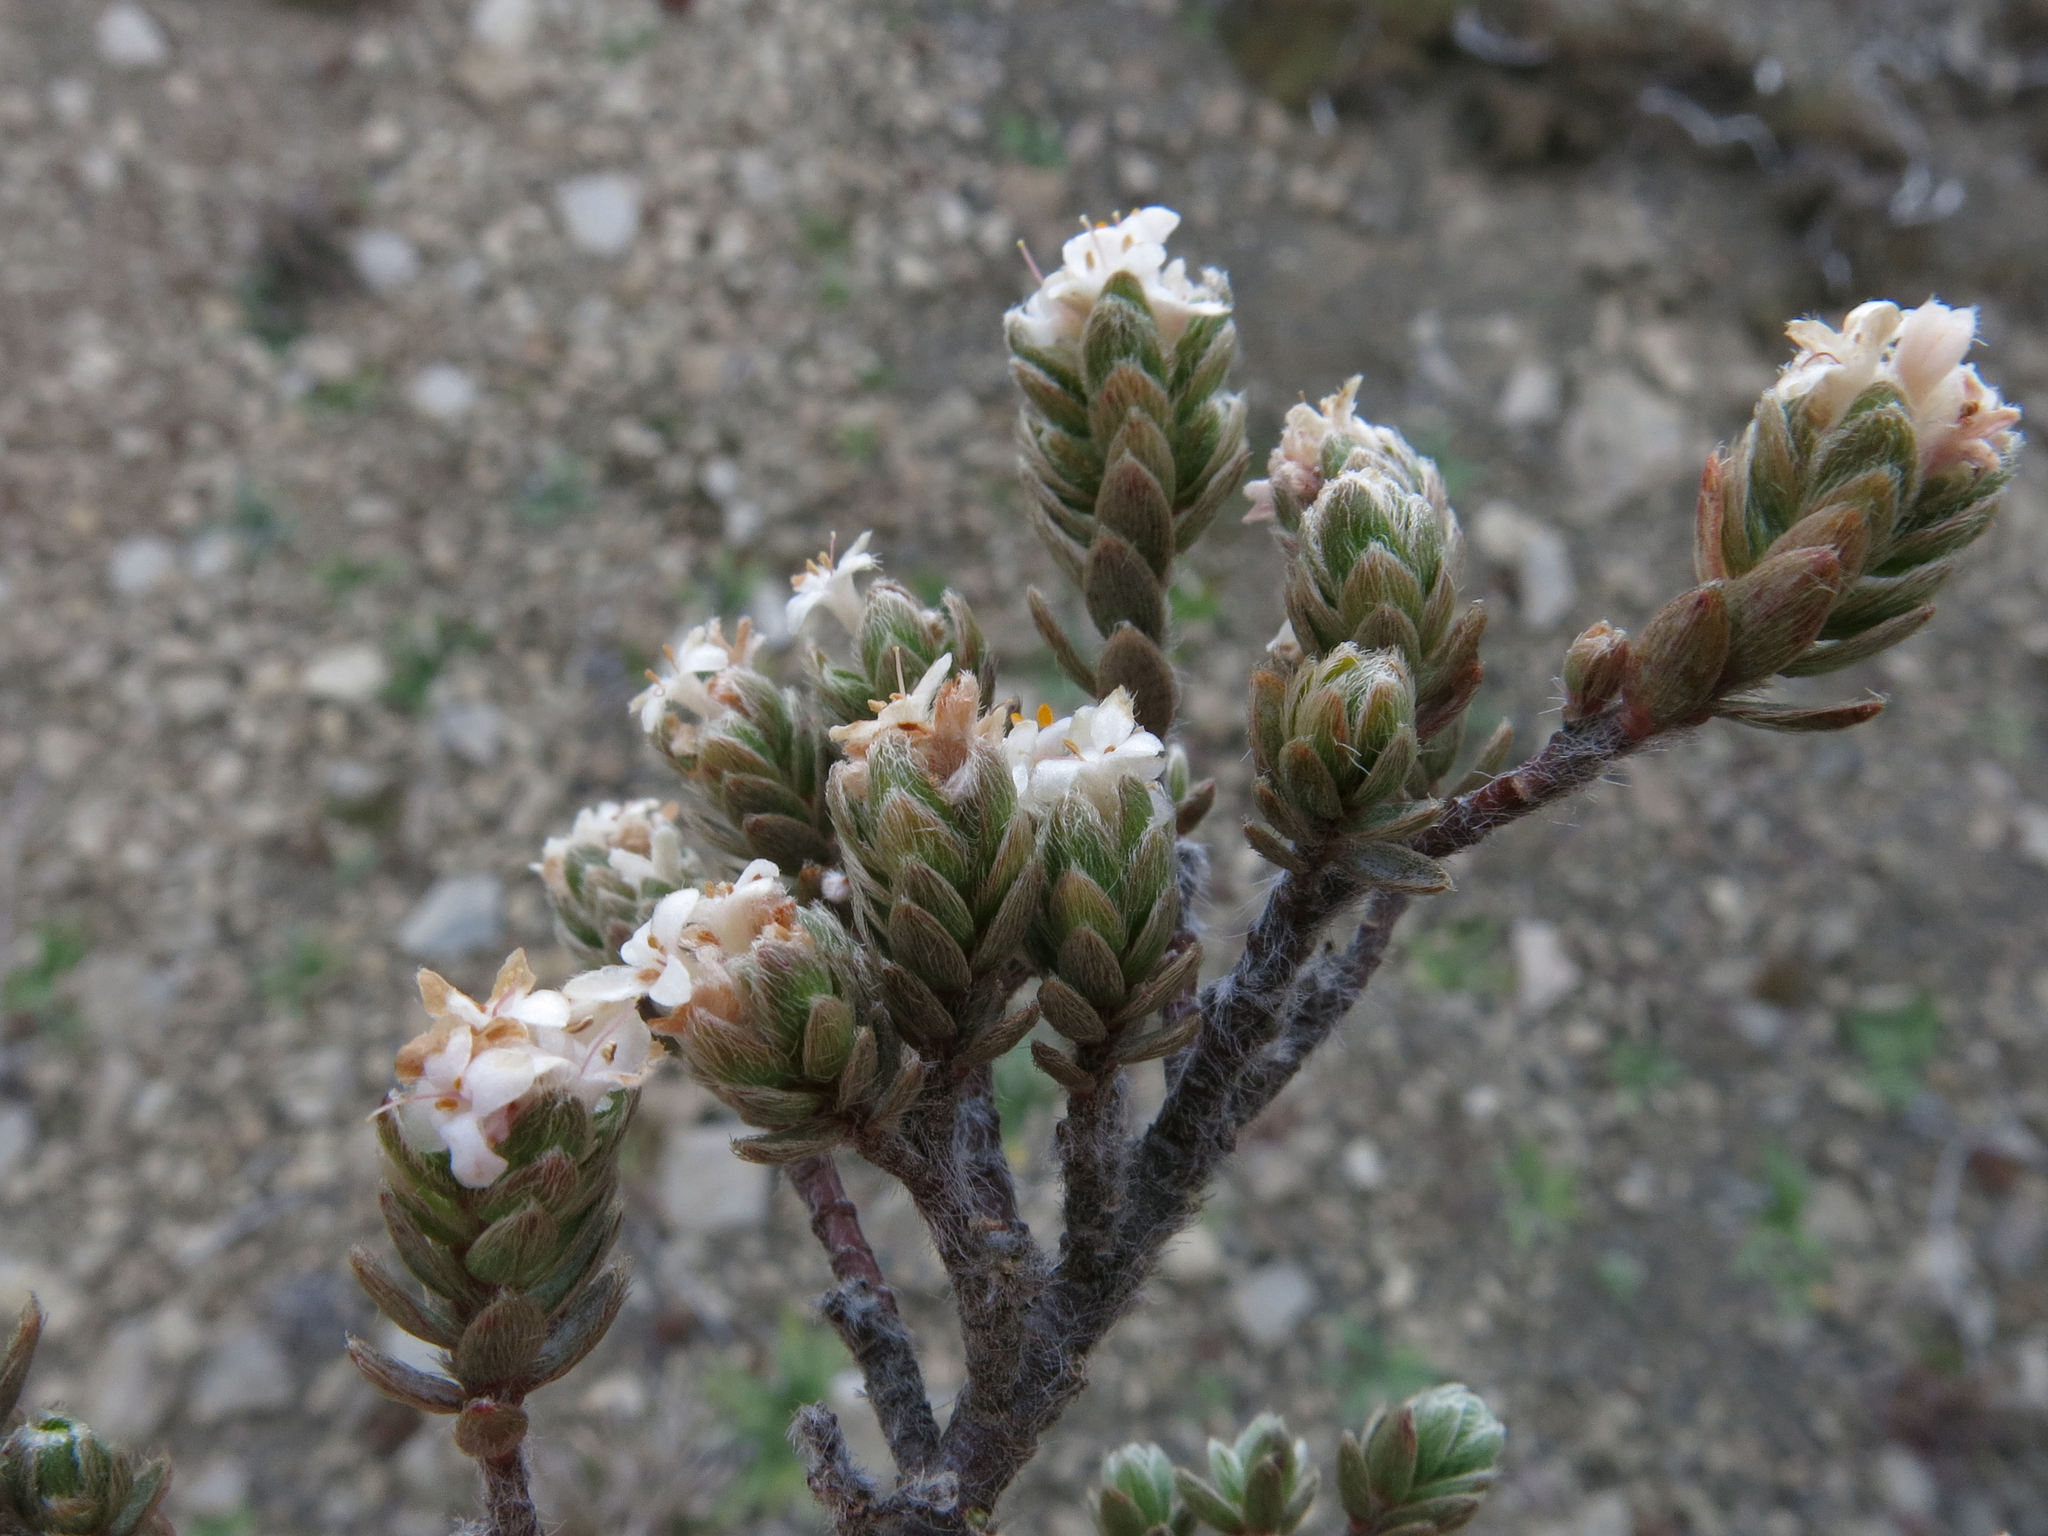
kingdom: Plantae
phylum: Tracheophyta
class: Magnoliopsida
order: Malvales
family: Thymelaeaceae
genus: Pimelea
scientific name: Pimelea mesoa
